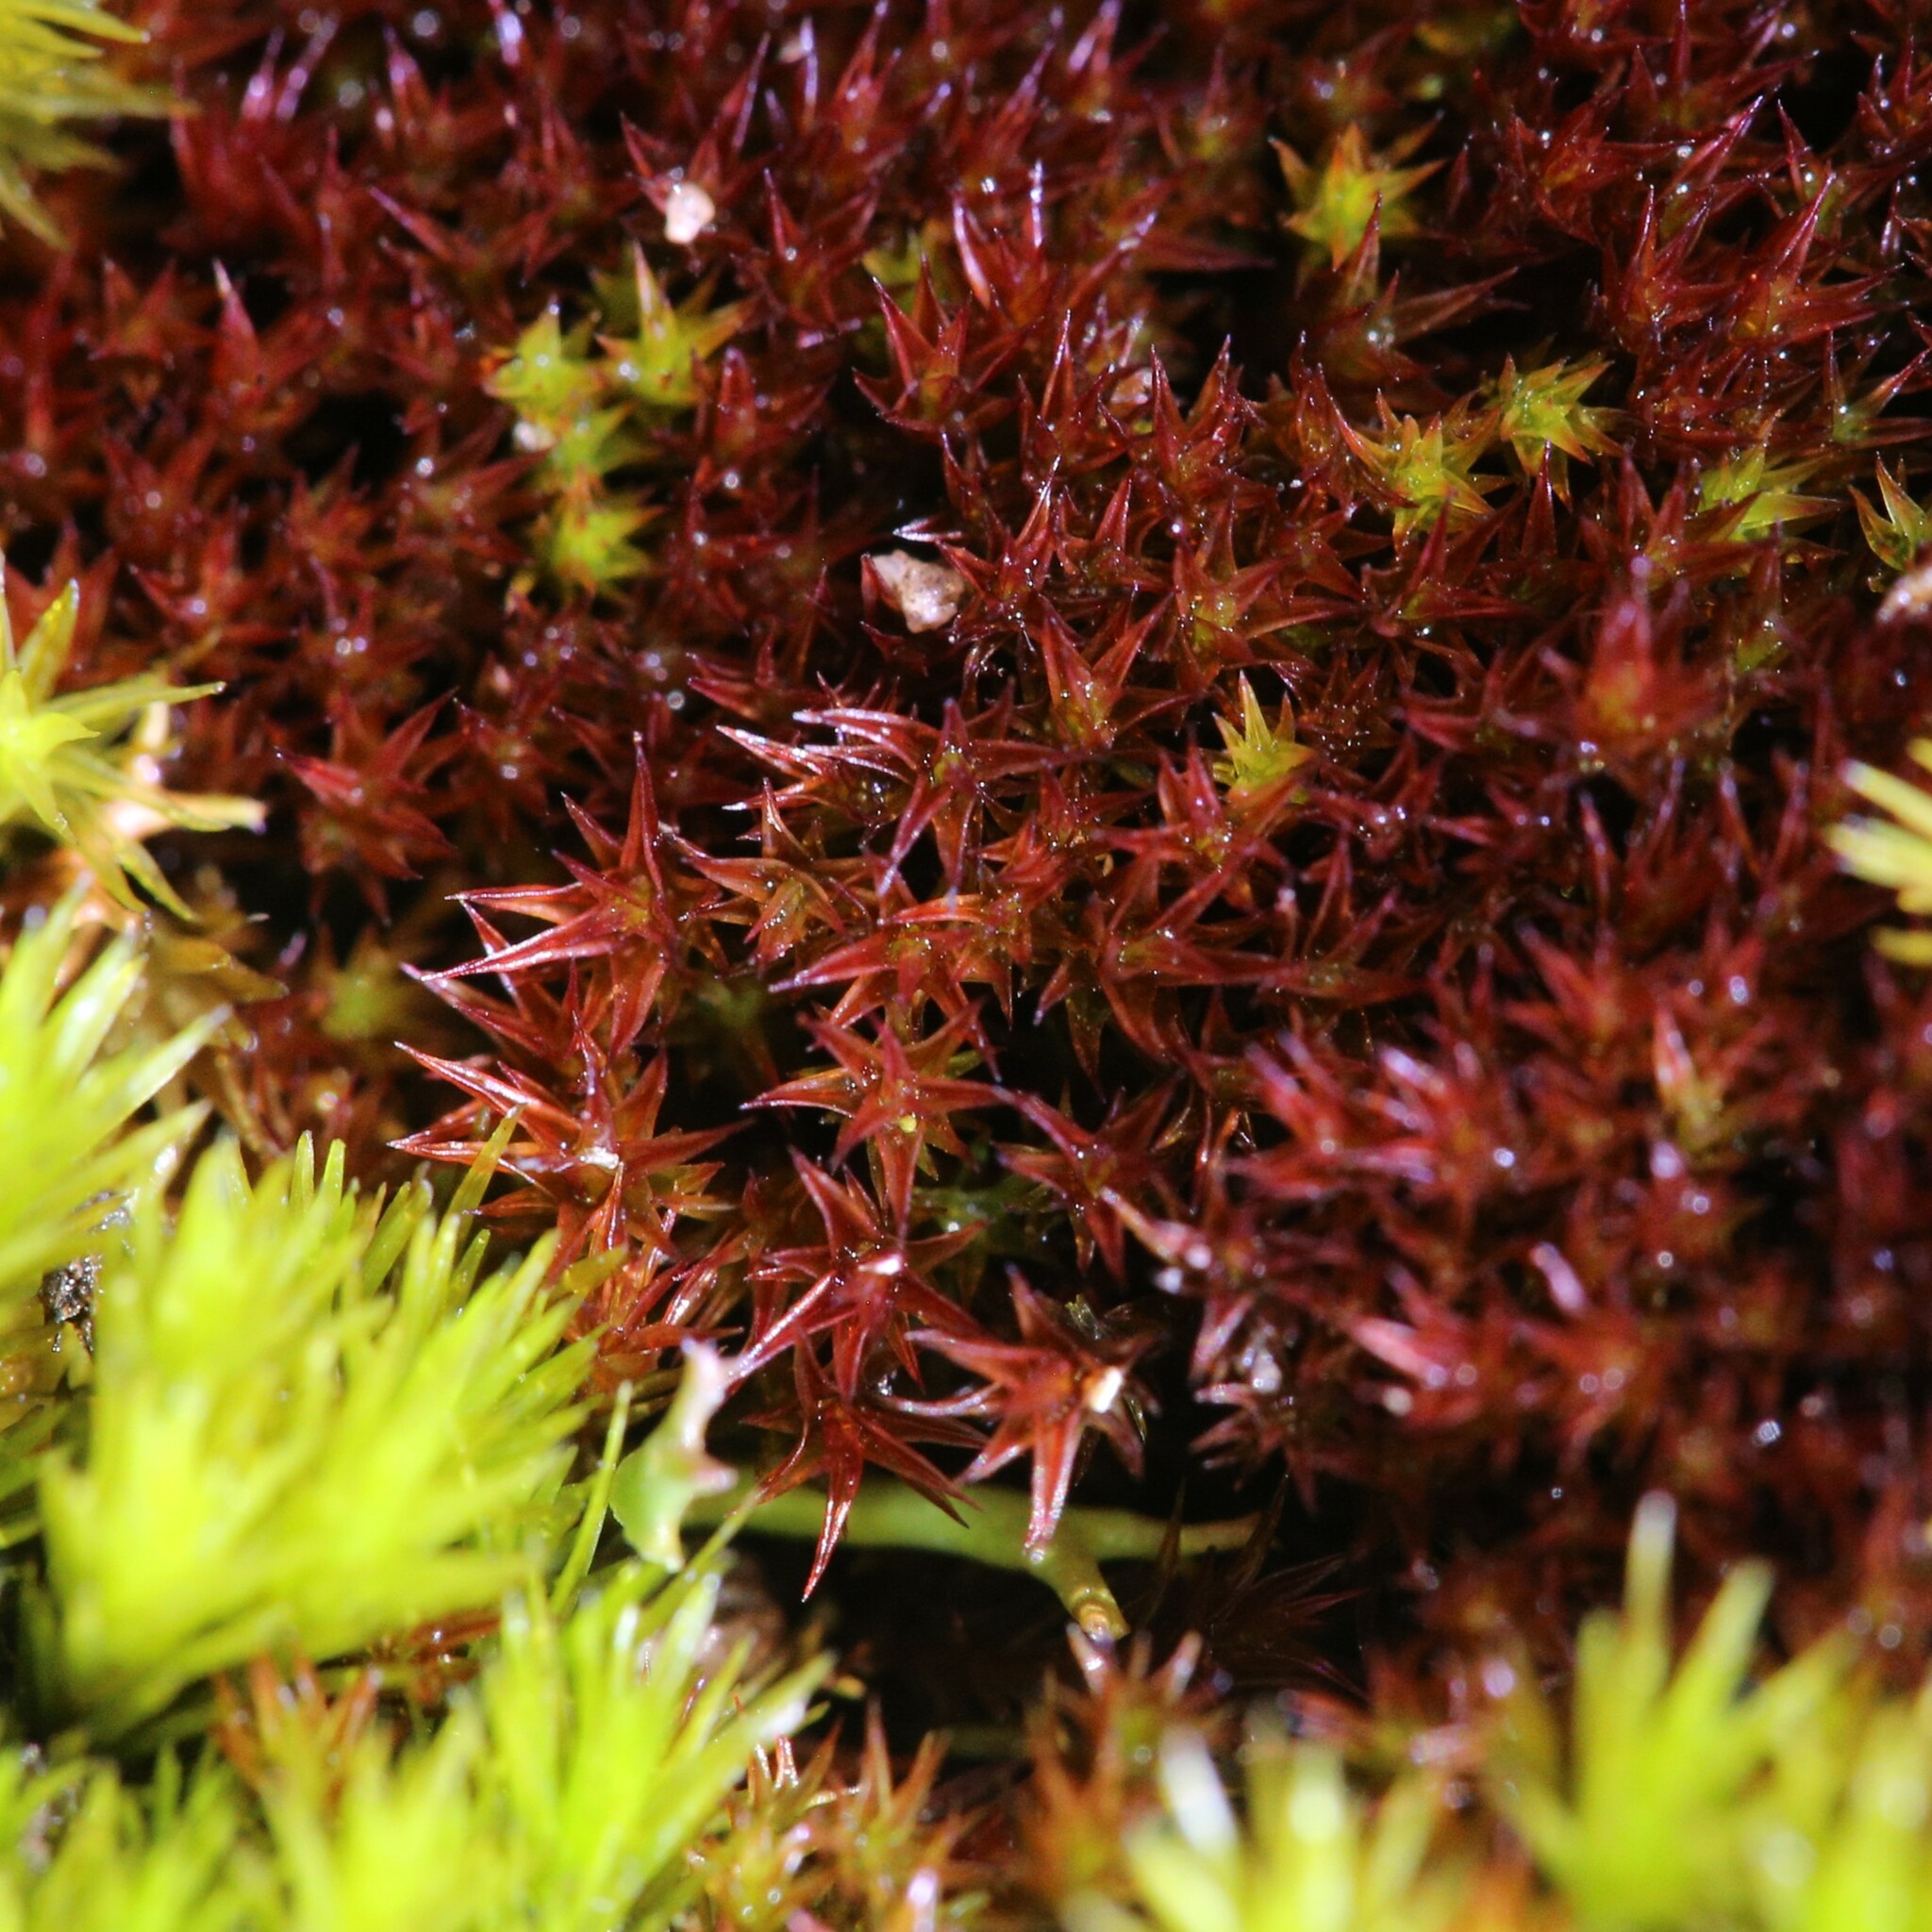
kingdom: Plantae
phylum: Bryophyta
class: Andreaeopsida
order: Andreaeales
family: Andreaeaceae
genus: Andreaea
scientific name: Andreaea australis
